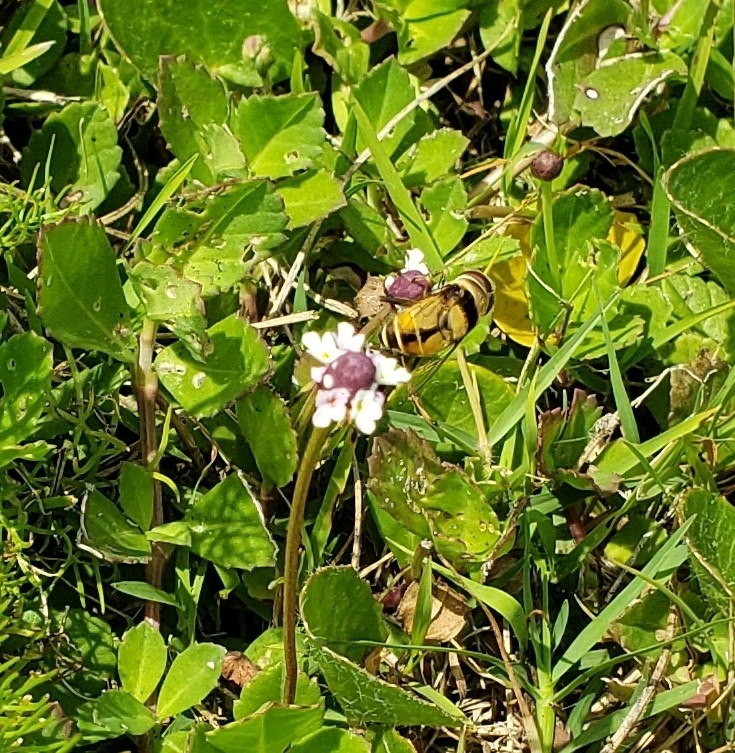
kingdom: Animalia
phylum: Arthropoda
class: Insecta
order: Diptera
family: Syrphidae
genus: Palpada
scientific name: Palpada pusilla
